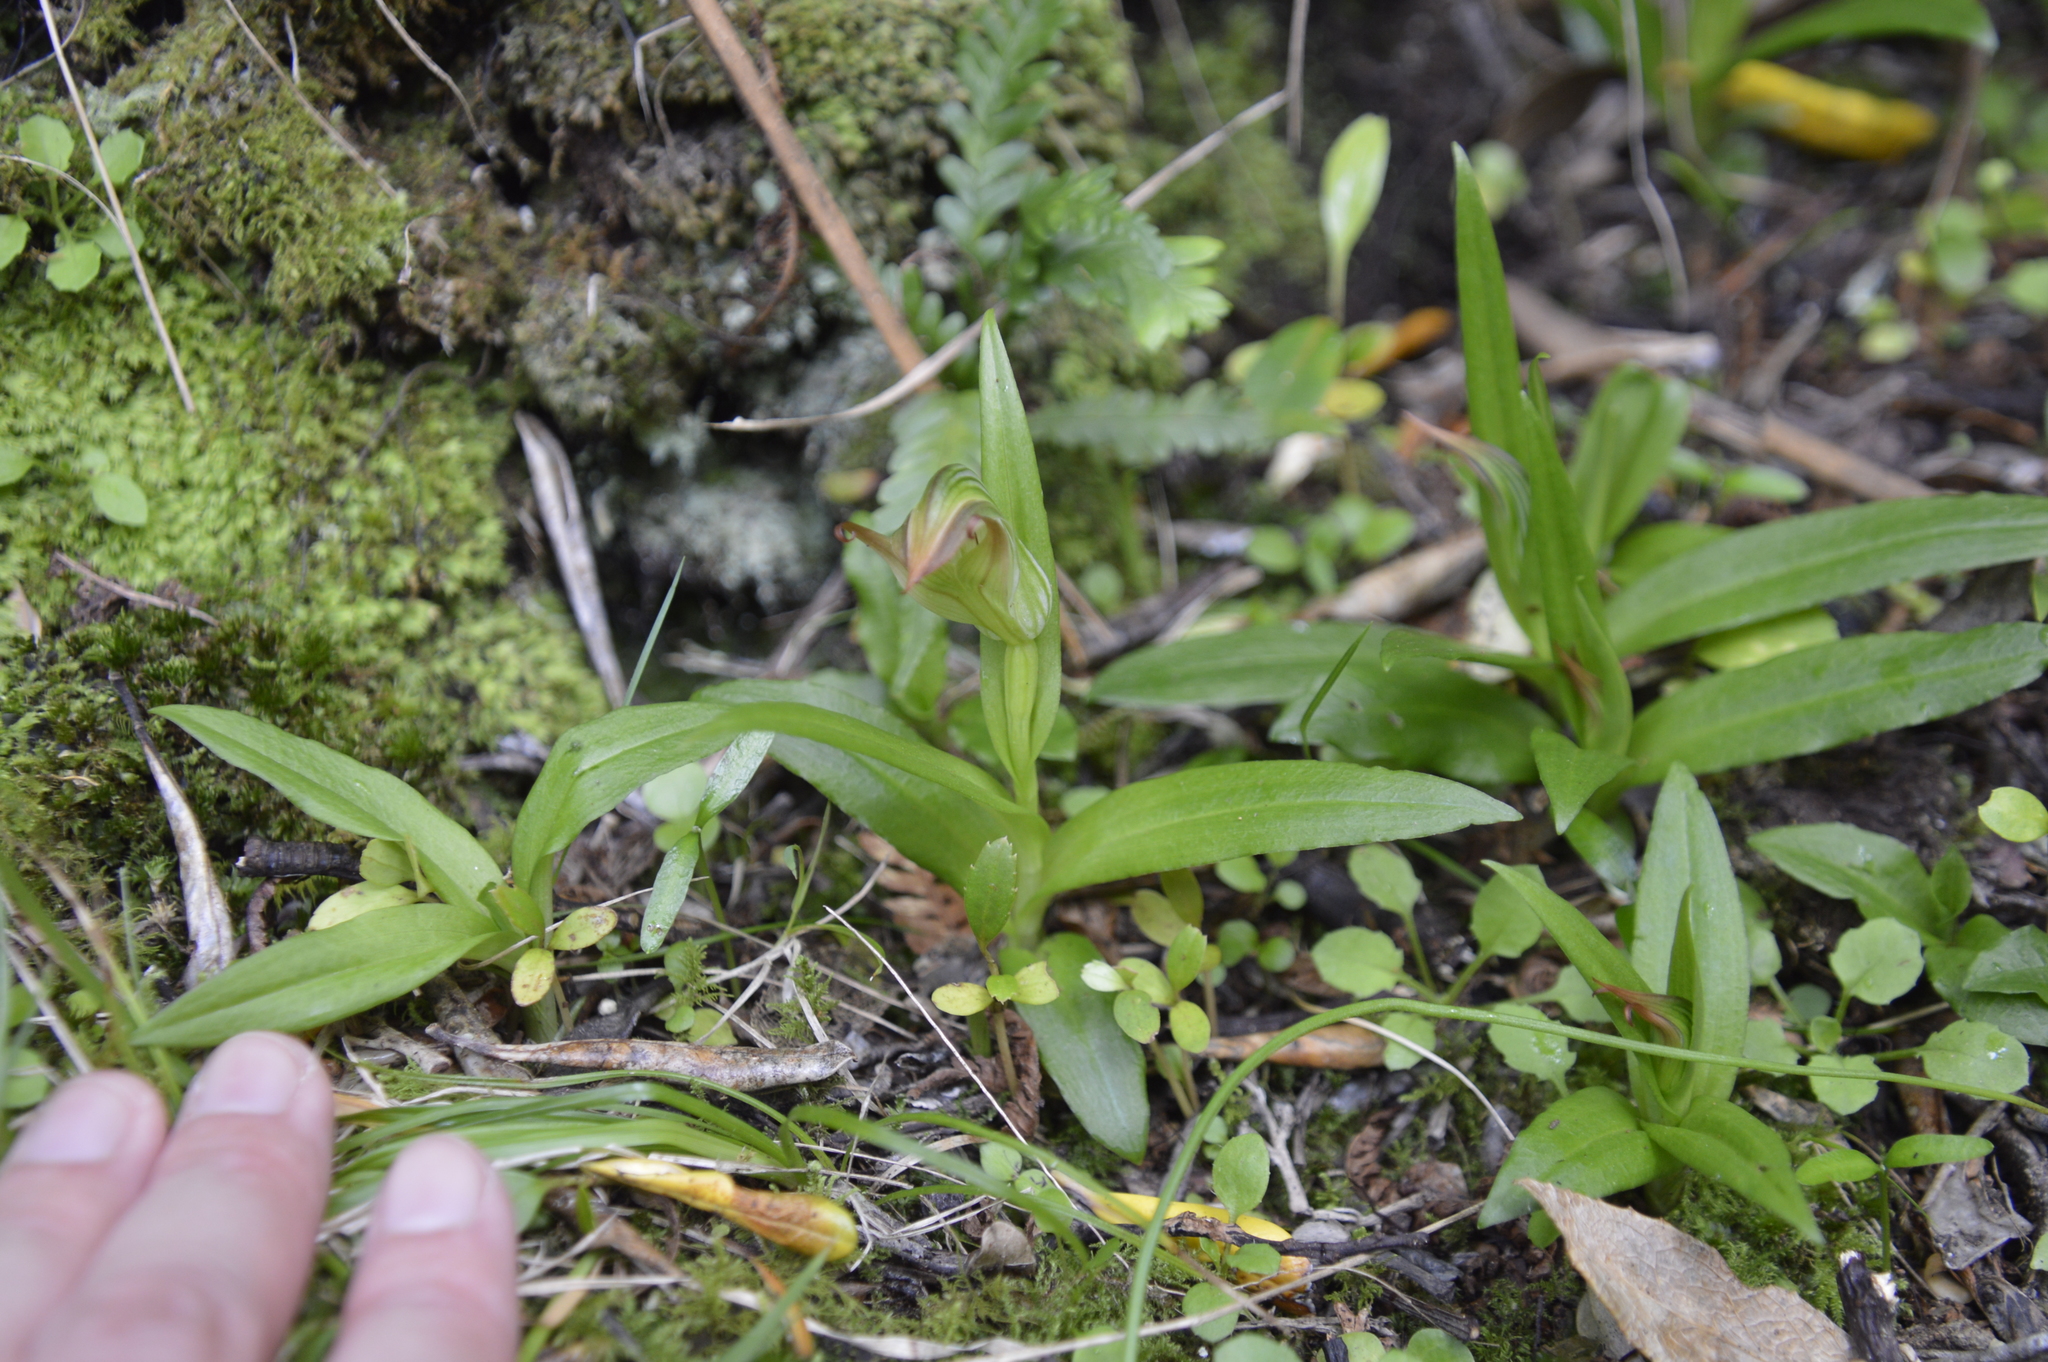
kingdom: Plantae
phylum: Tracheophyta
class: Liliopsida
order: Asparagales
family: Orchidaceae
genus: Pterostylis
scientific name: Pterostylis silvicultrix
